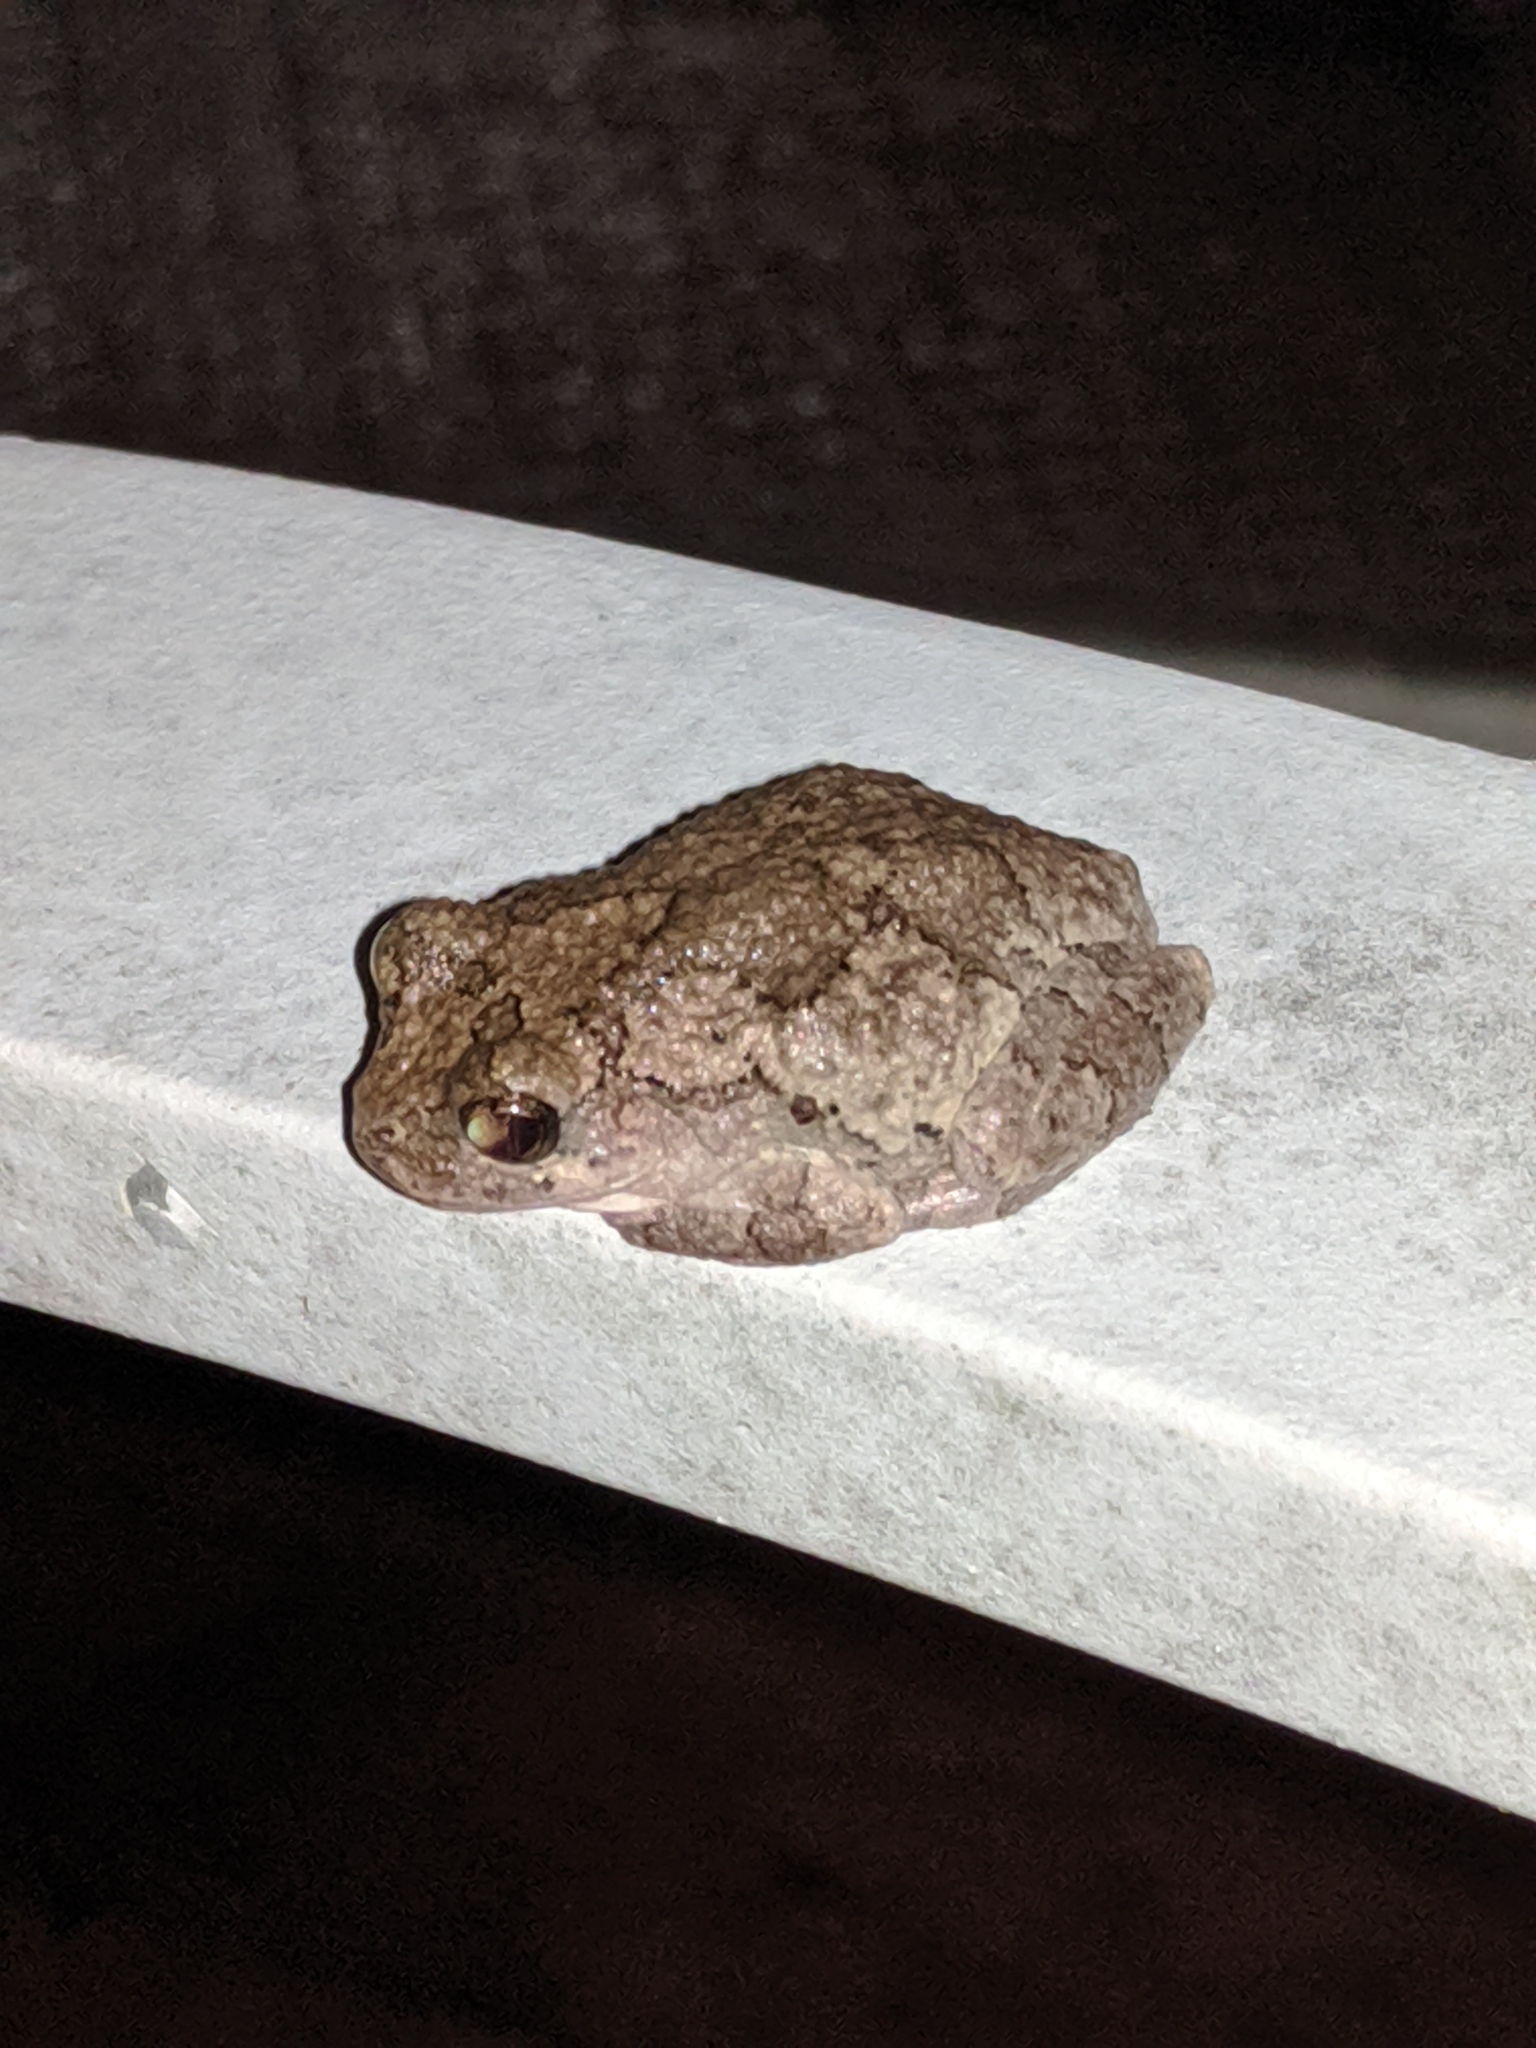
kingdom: Animalia
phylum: Chordata
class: Amphibia
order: Anura
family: Hylidae
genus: Dryophytes
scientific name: Dryophytes chrysoscelis
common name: Cope's gray treefrog
